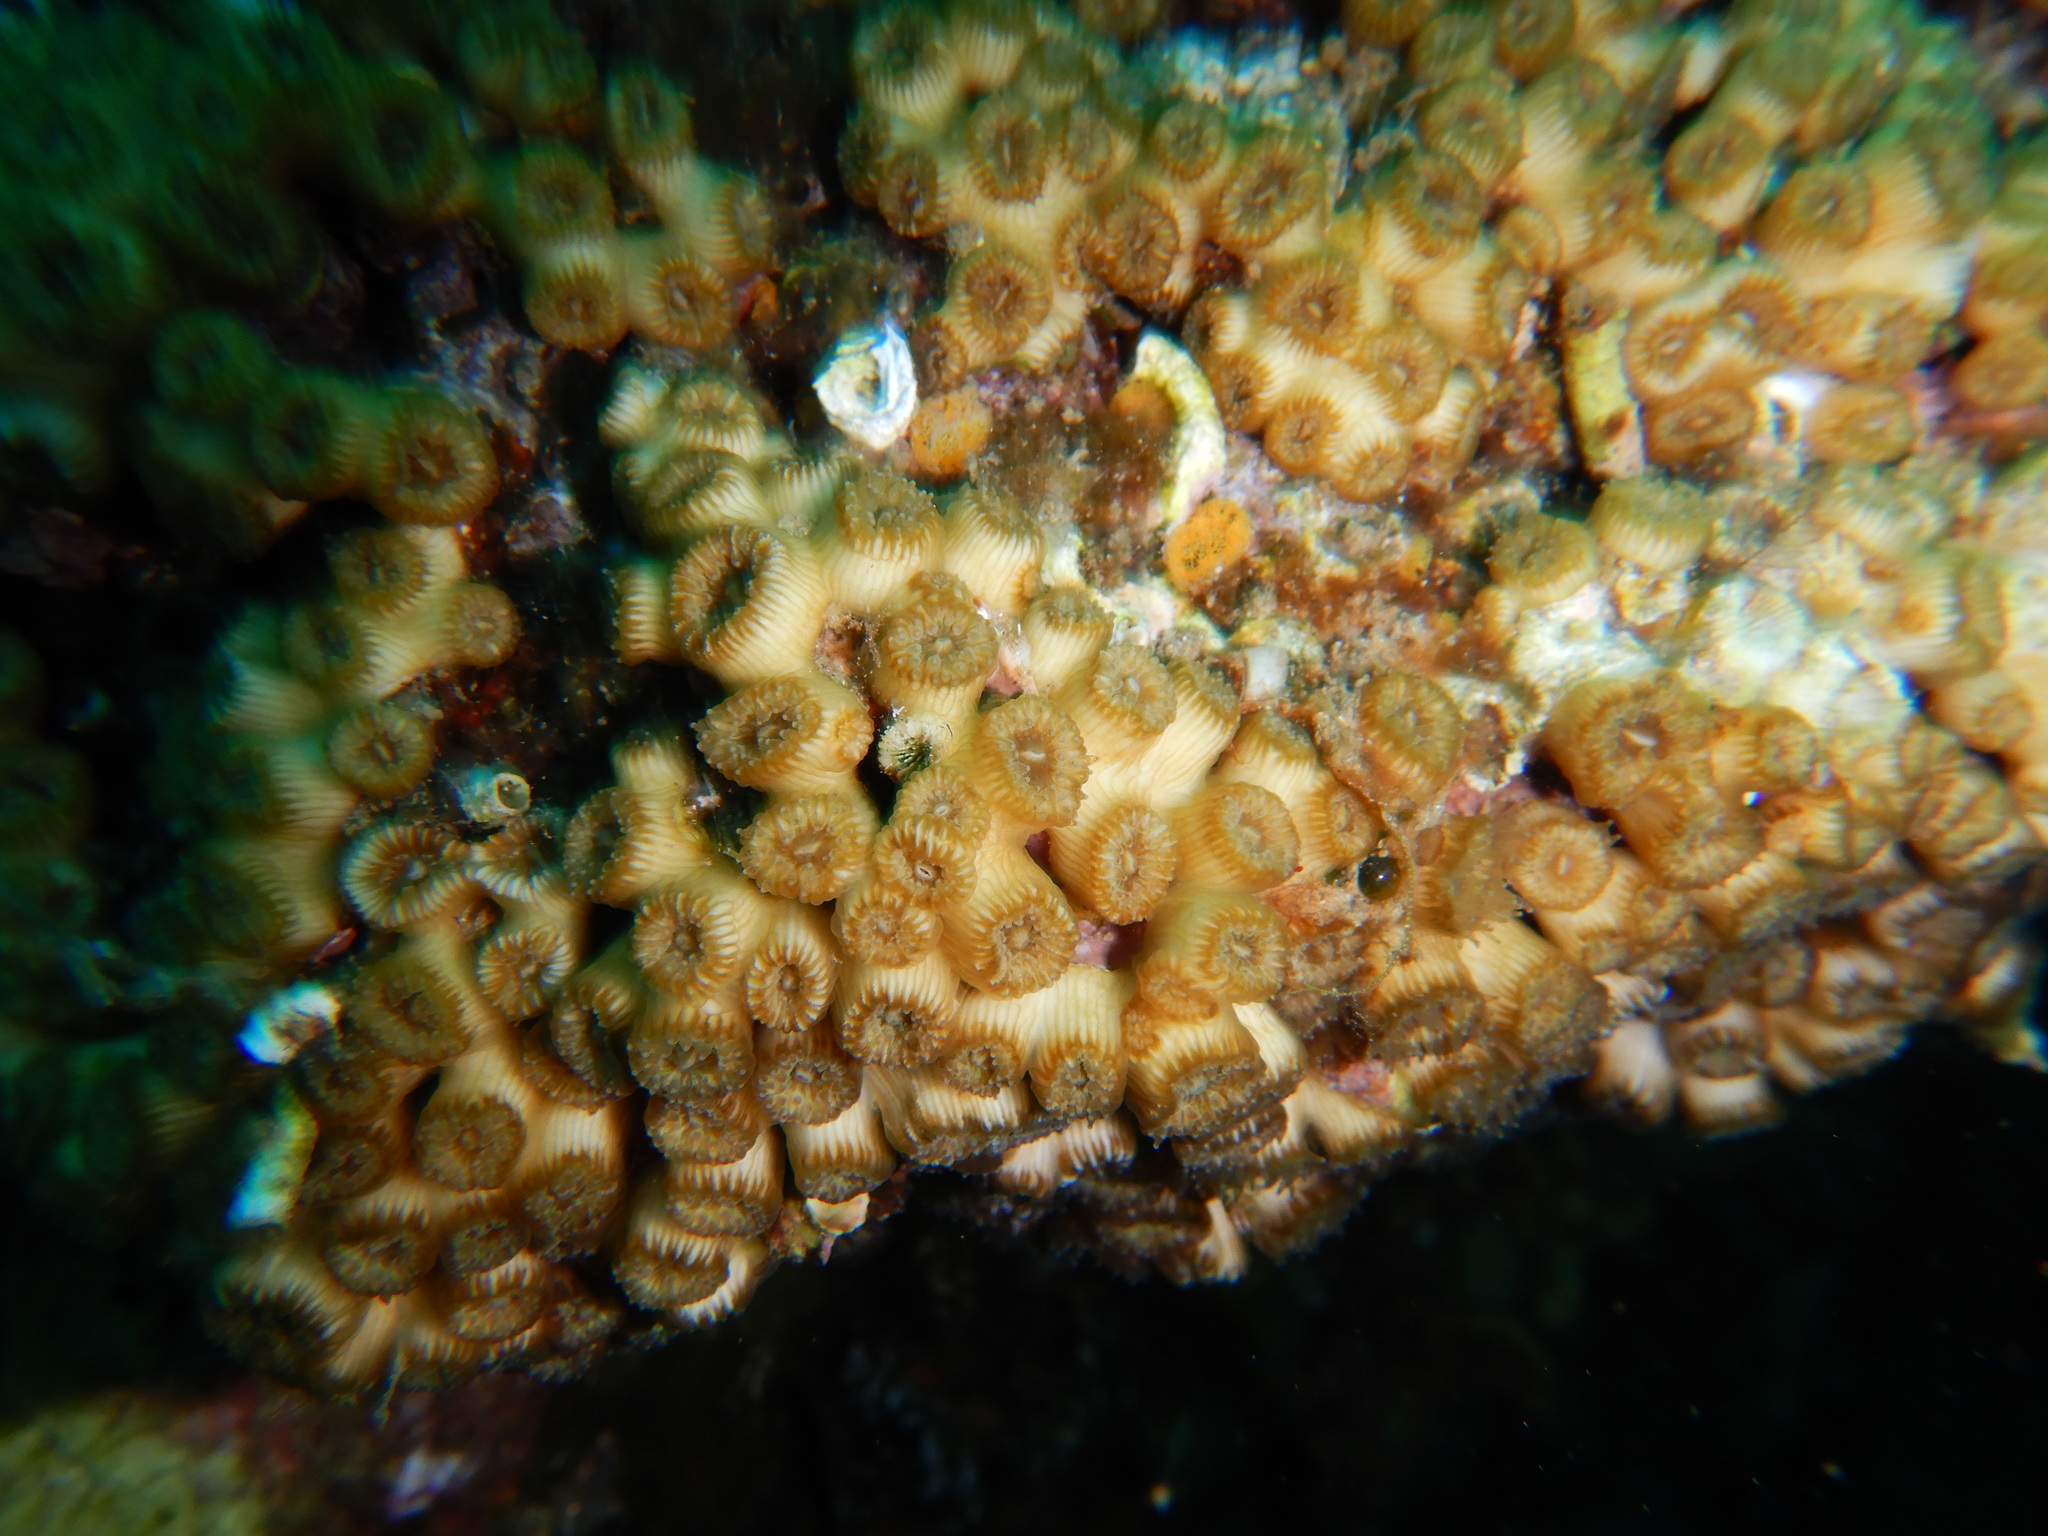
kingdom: Animalia
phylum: Cnidaria
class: Anthozoa
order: Scleractinia
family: Cladocoridae
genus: Cladocora
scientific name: Cladocora caespitosa
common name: Cladocora
